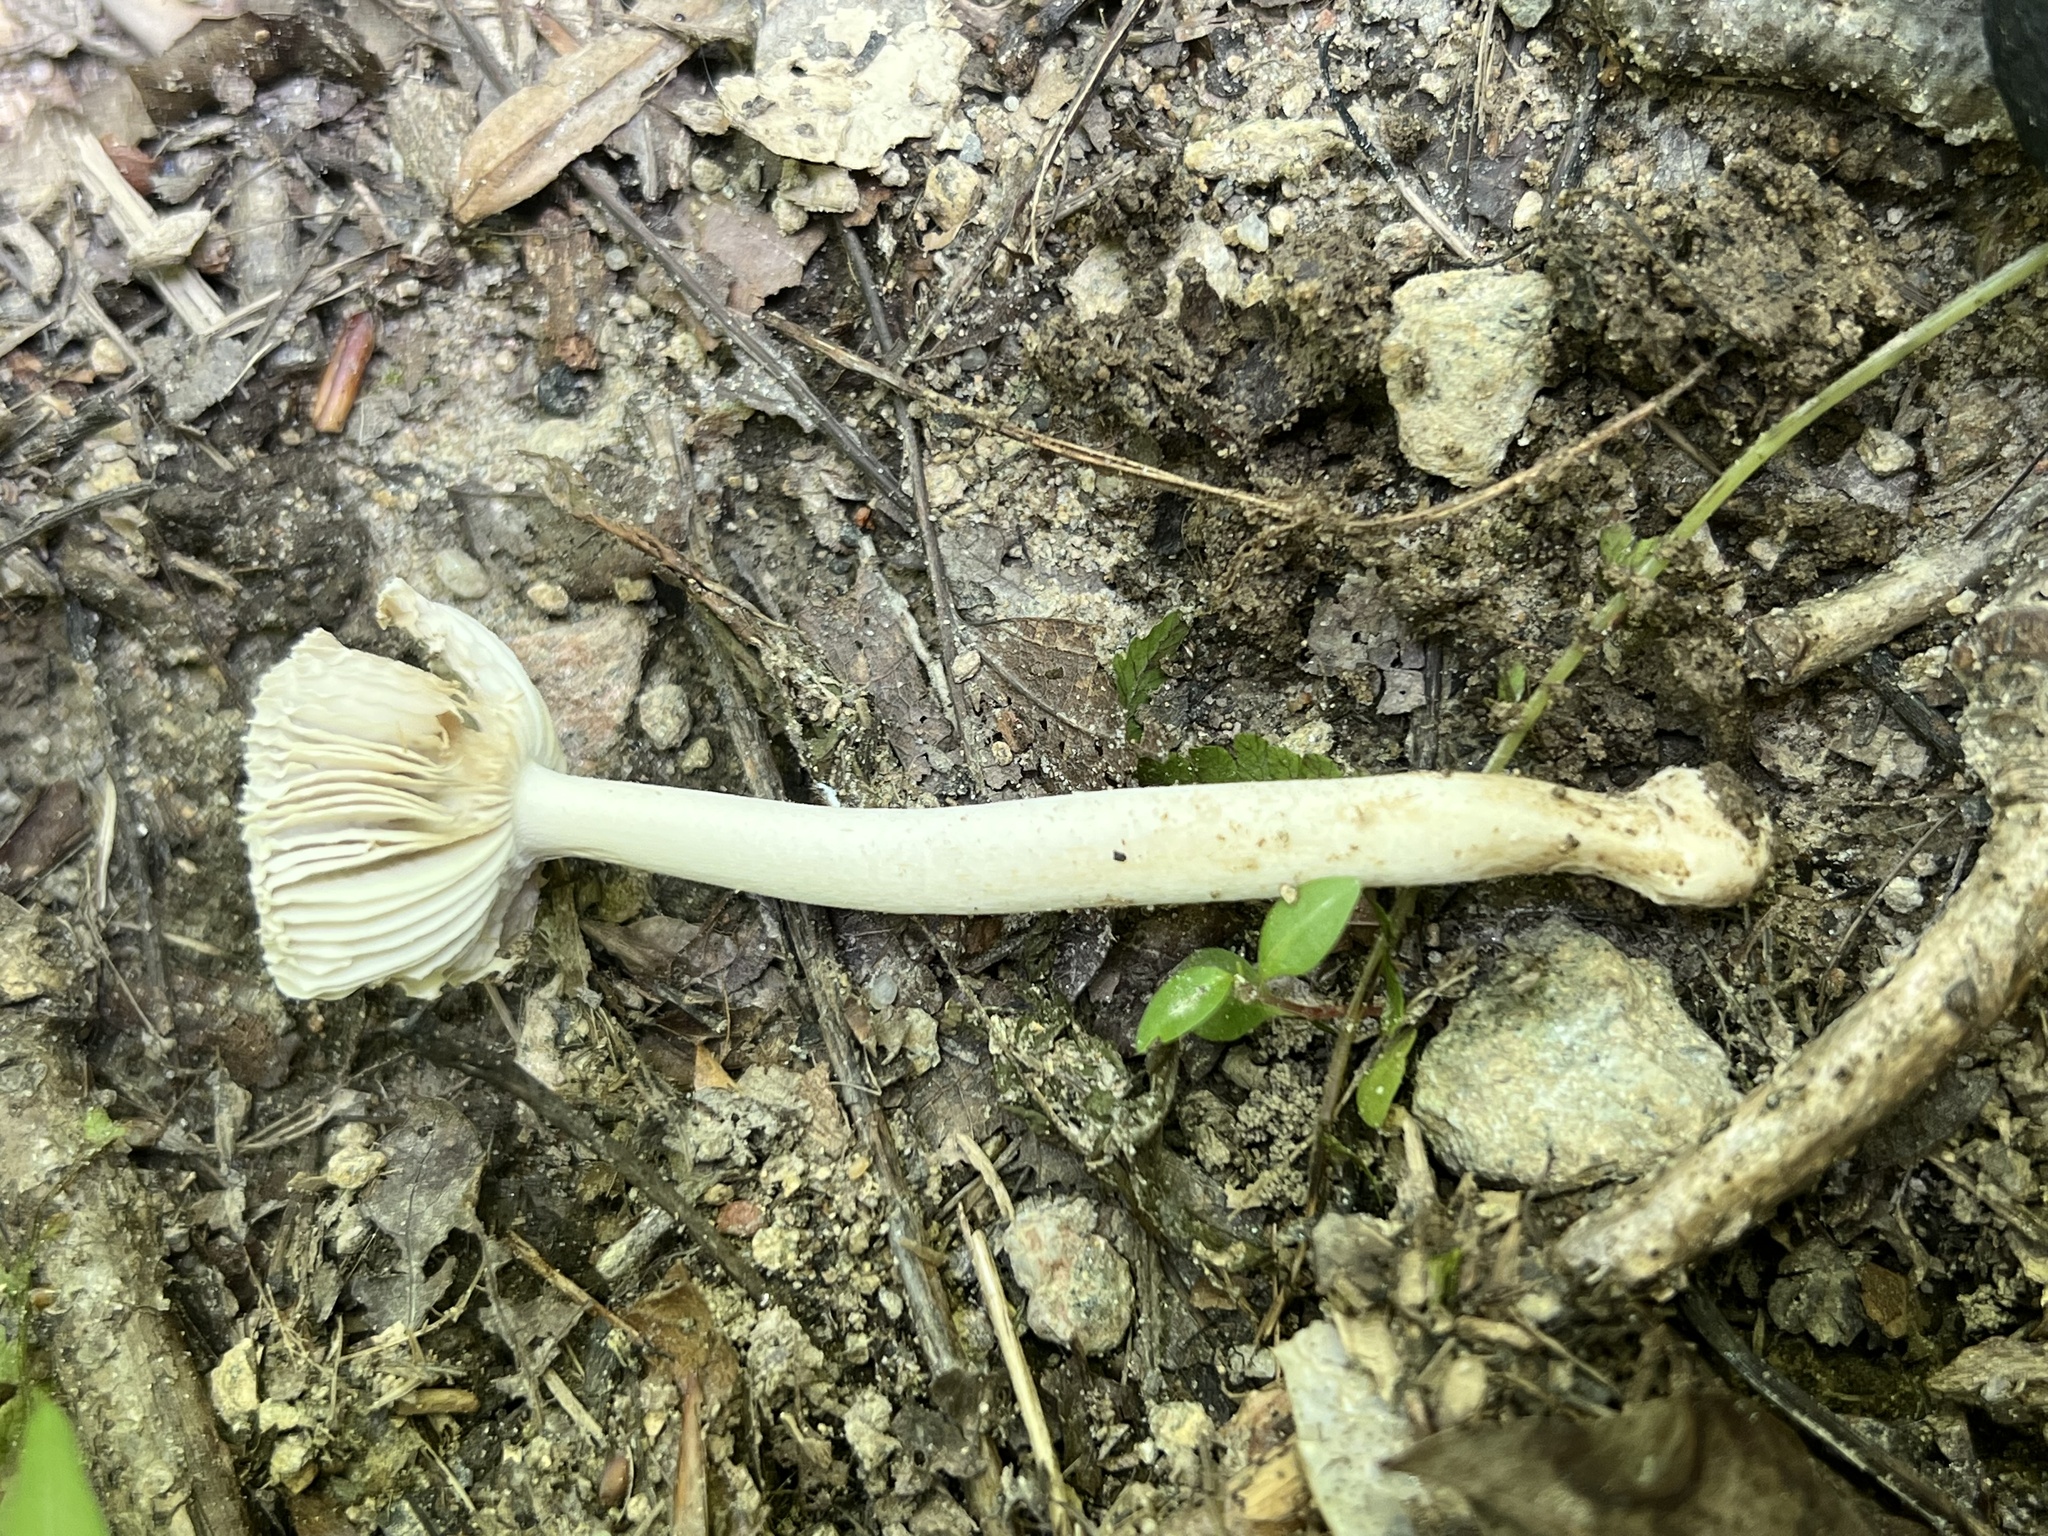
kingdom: Fungi
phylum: Basidiomycota
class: Agaricomycetes
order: Agaricales
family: Amanitaceae
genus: Amanita
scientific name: Amanita farinosa
